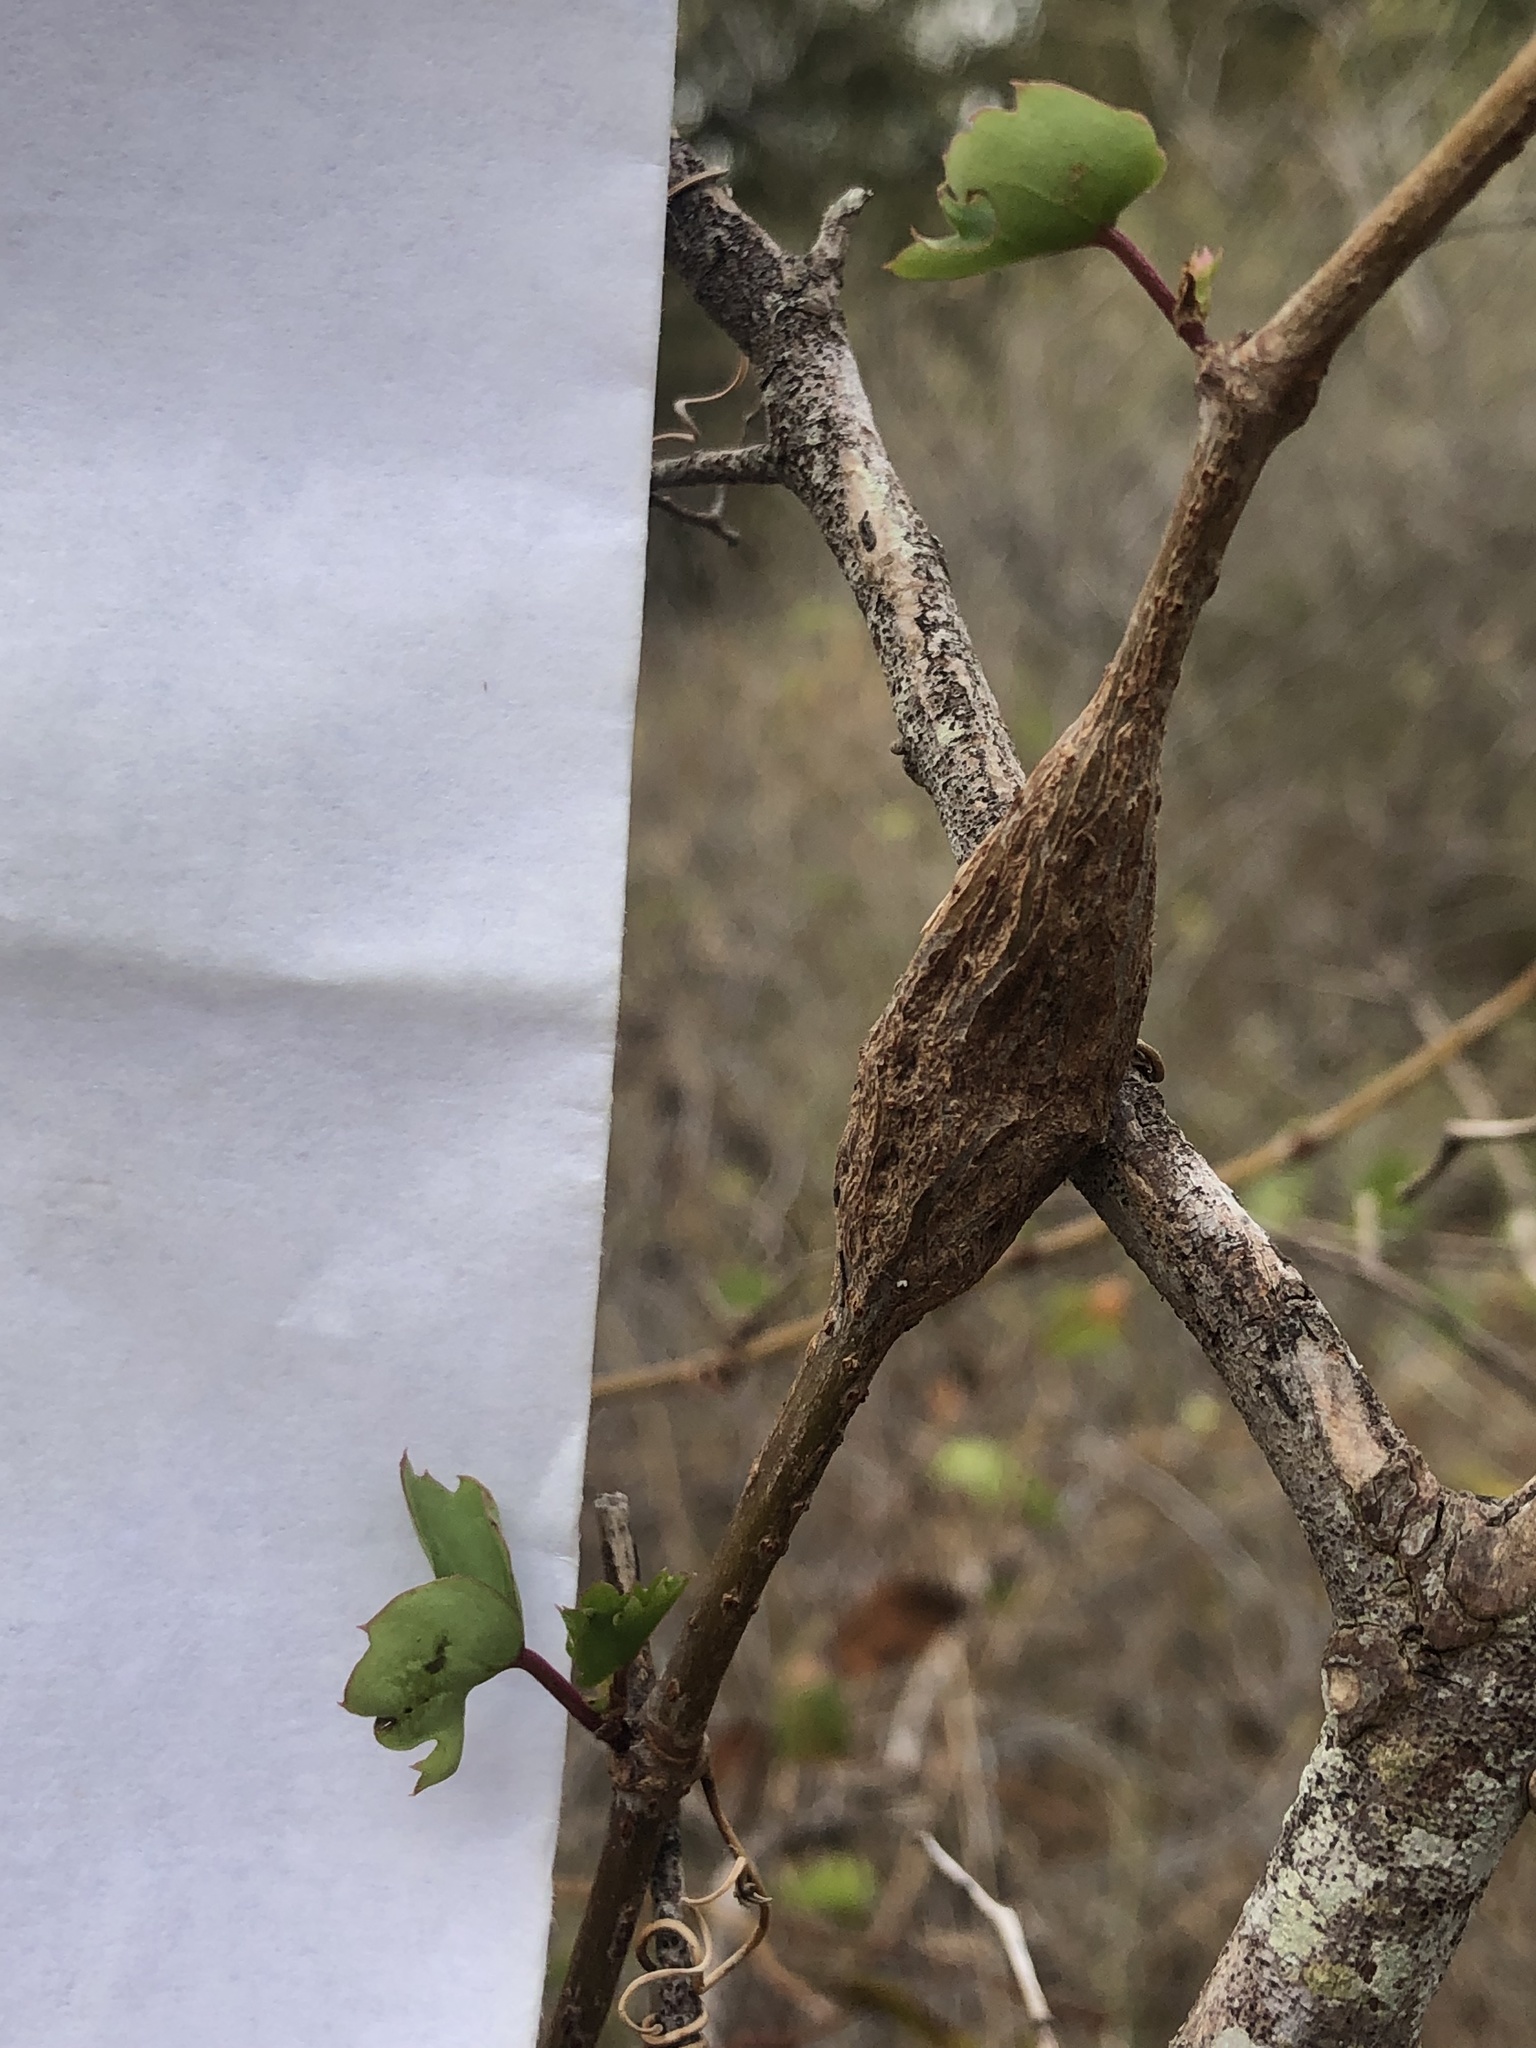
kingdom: Plantae
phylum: Tracheophyta
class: Magnoliopsida
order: Vitales
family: Vitaceae
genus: Cissus
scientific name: Cissus trifoliata
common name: Vine-sorrel
